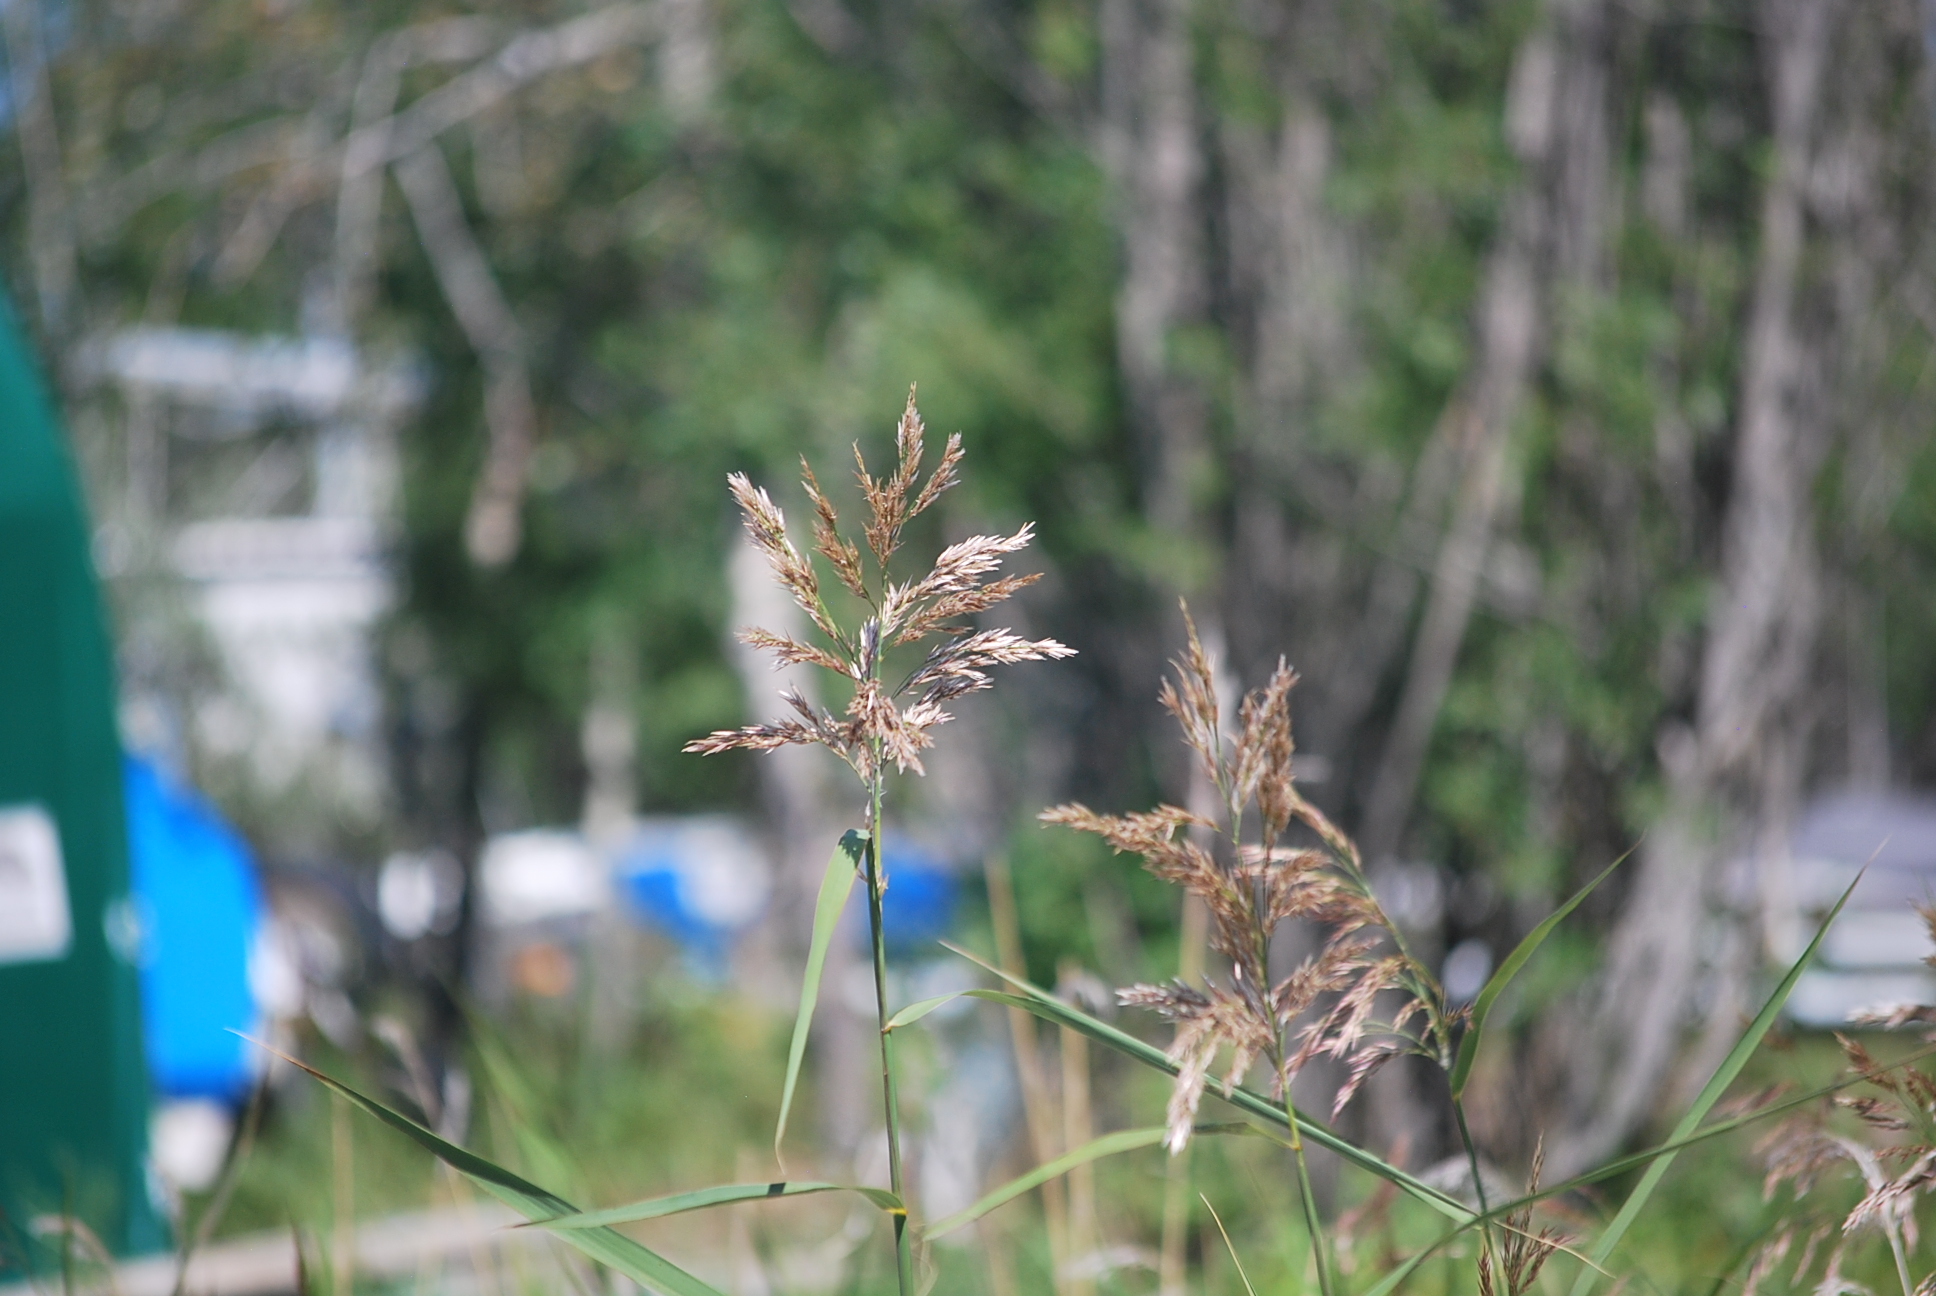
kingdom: Plantae
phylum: Tracheophyta
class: Liliopsida
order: Poales
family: Poaceae
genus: Calamagrostis
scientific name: Calamagrostis canadensis
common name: Canada bluejoint
